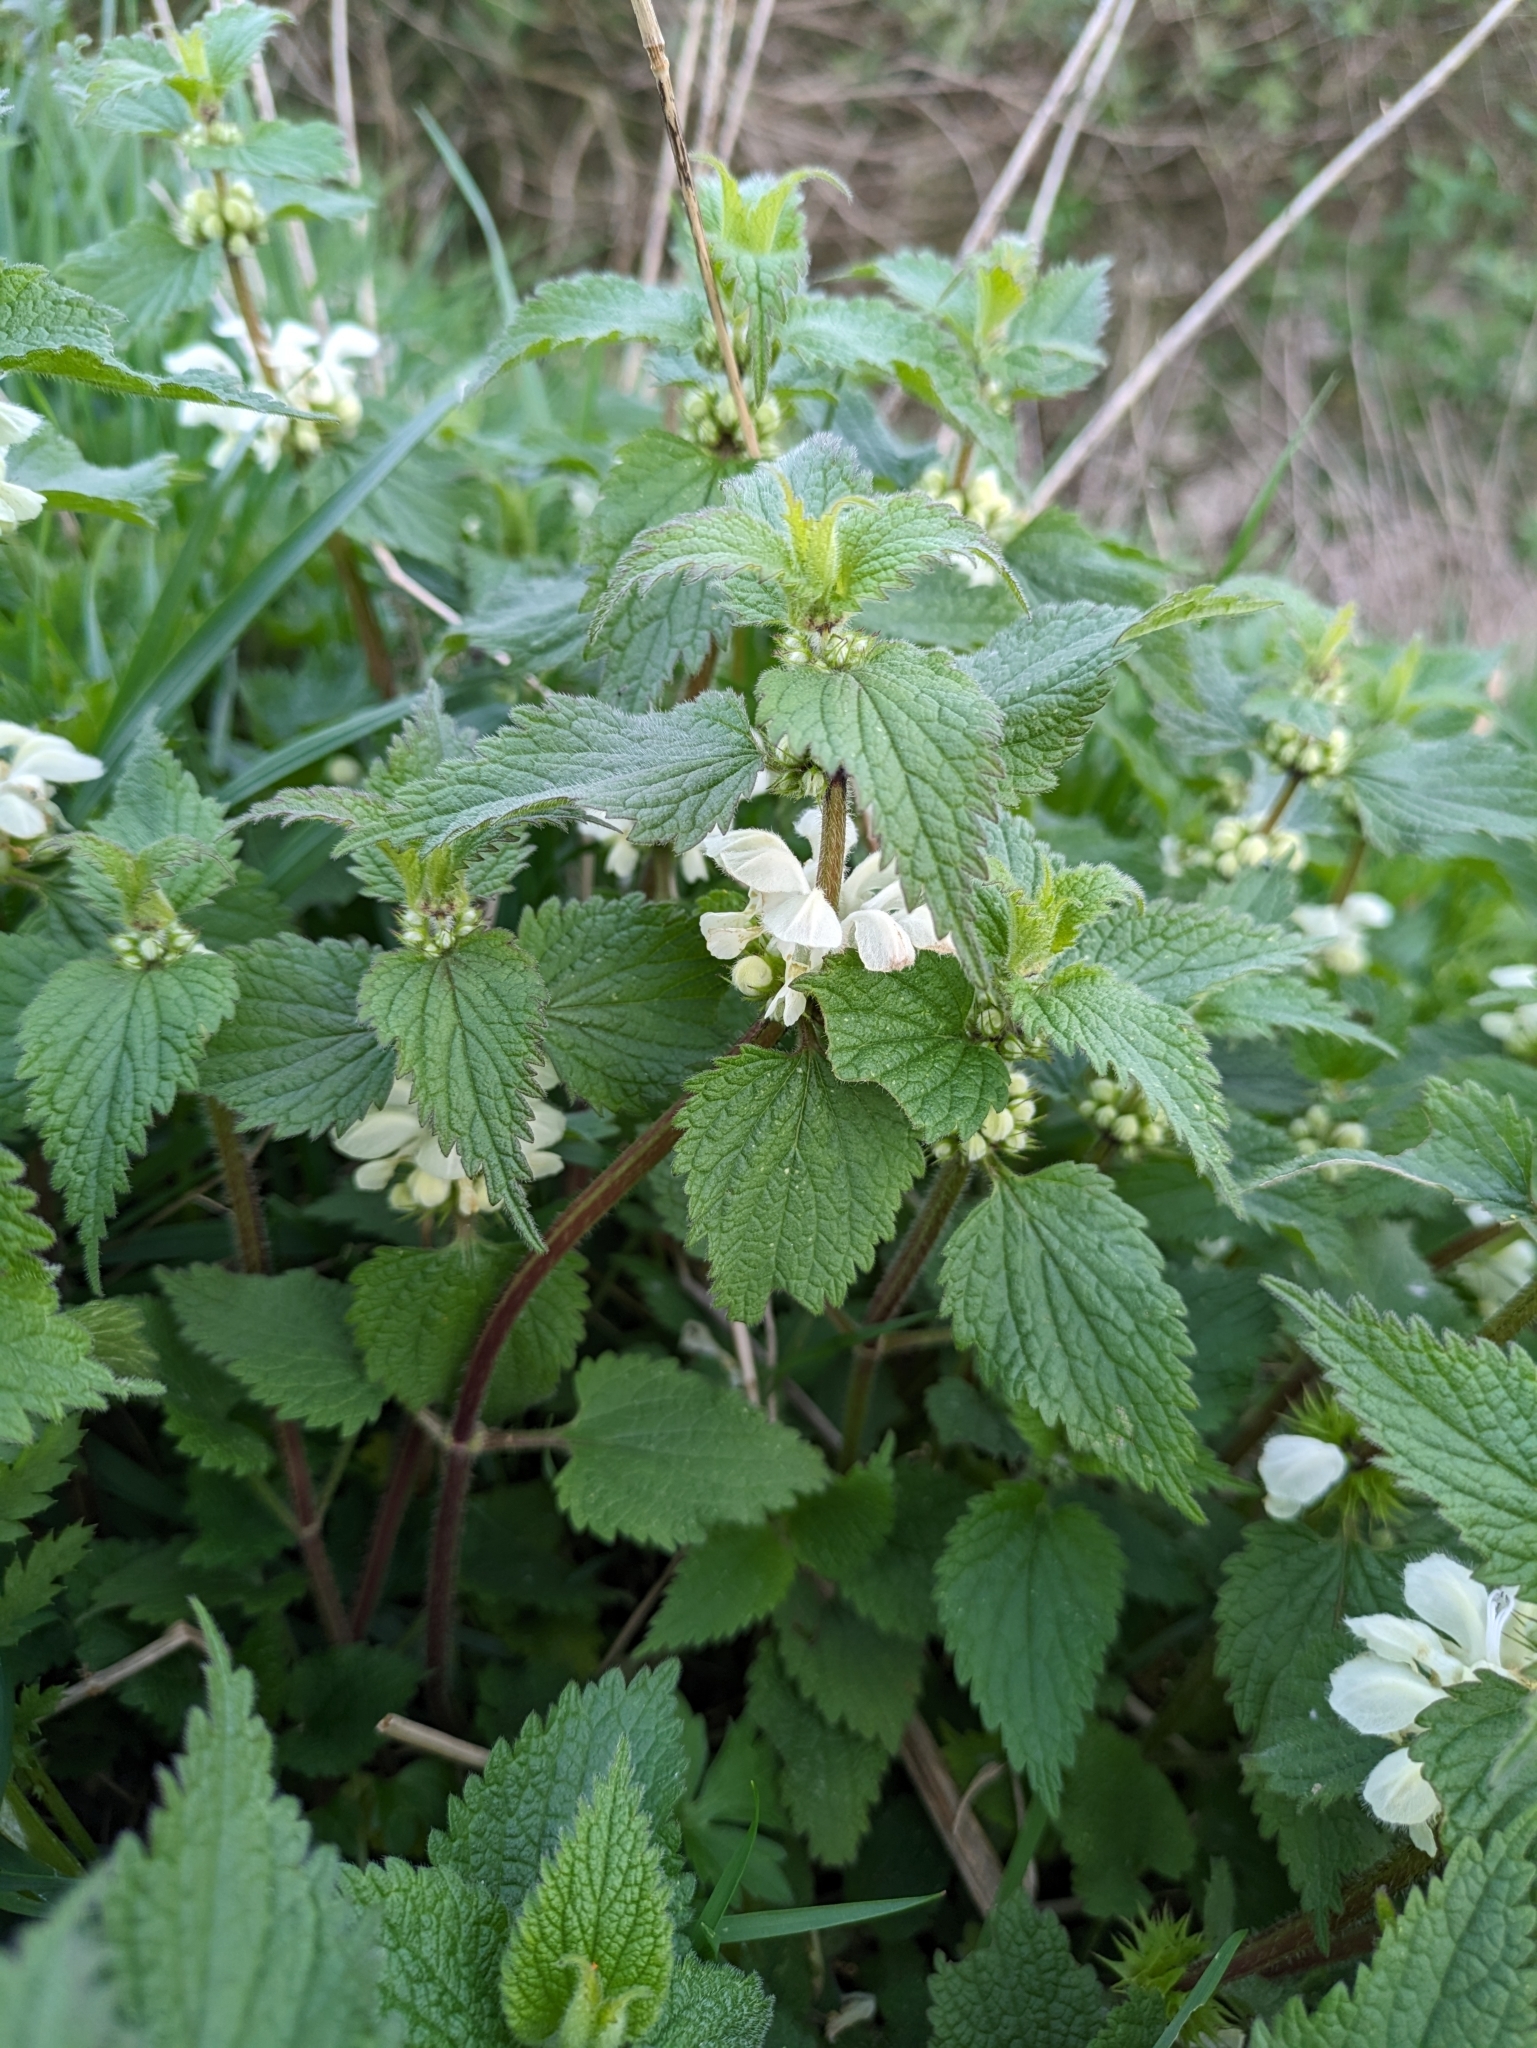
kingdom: Plantae
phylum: Tracheophyta
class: Magnoliopsida
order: Lamiales
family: Lamiaceae
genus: Lamium
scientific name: Lamium album
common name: White dead-nettle
